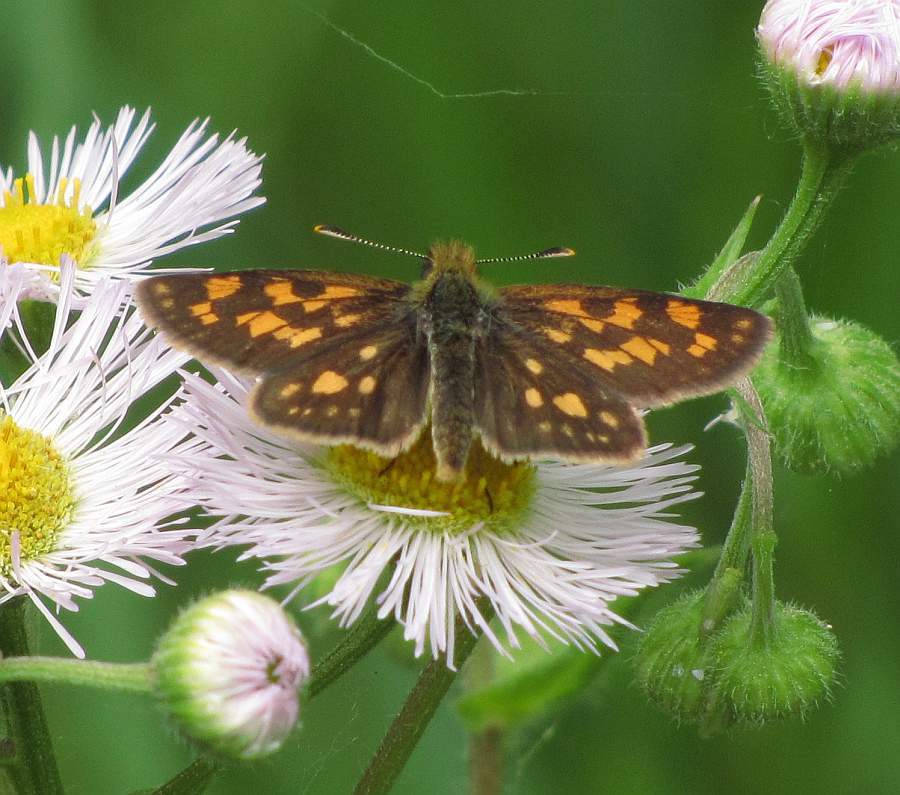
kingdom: Animalia
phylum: Arthropoda
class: Insecta
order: Lepidoptera
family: Hesperiidae
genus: Carterocephalus
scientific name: Carterocephalus mandan
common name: Arctic skipperling
